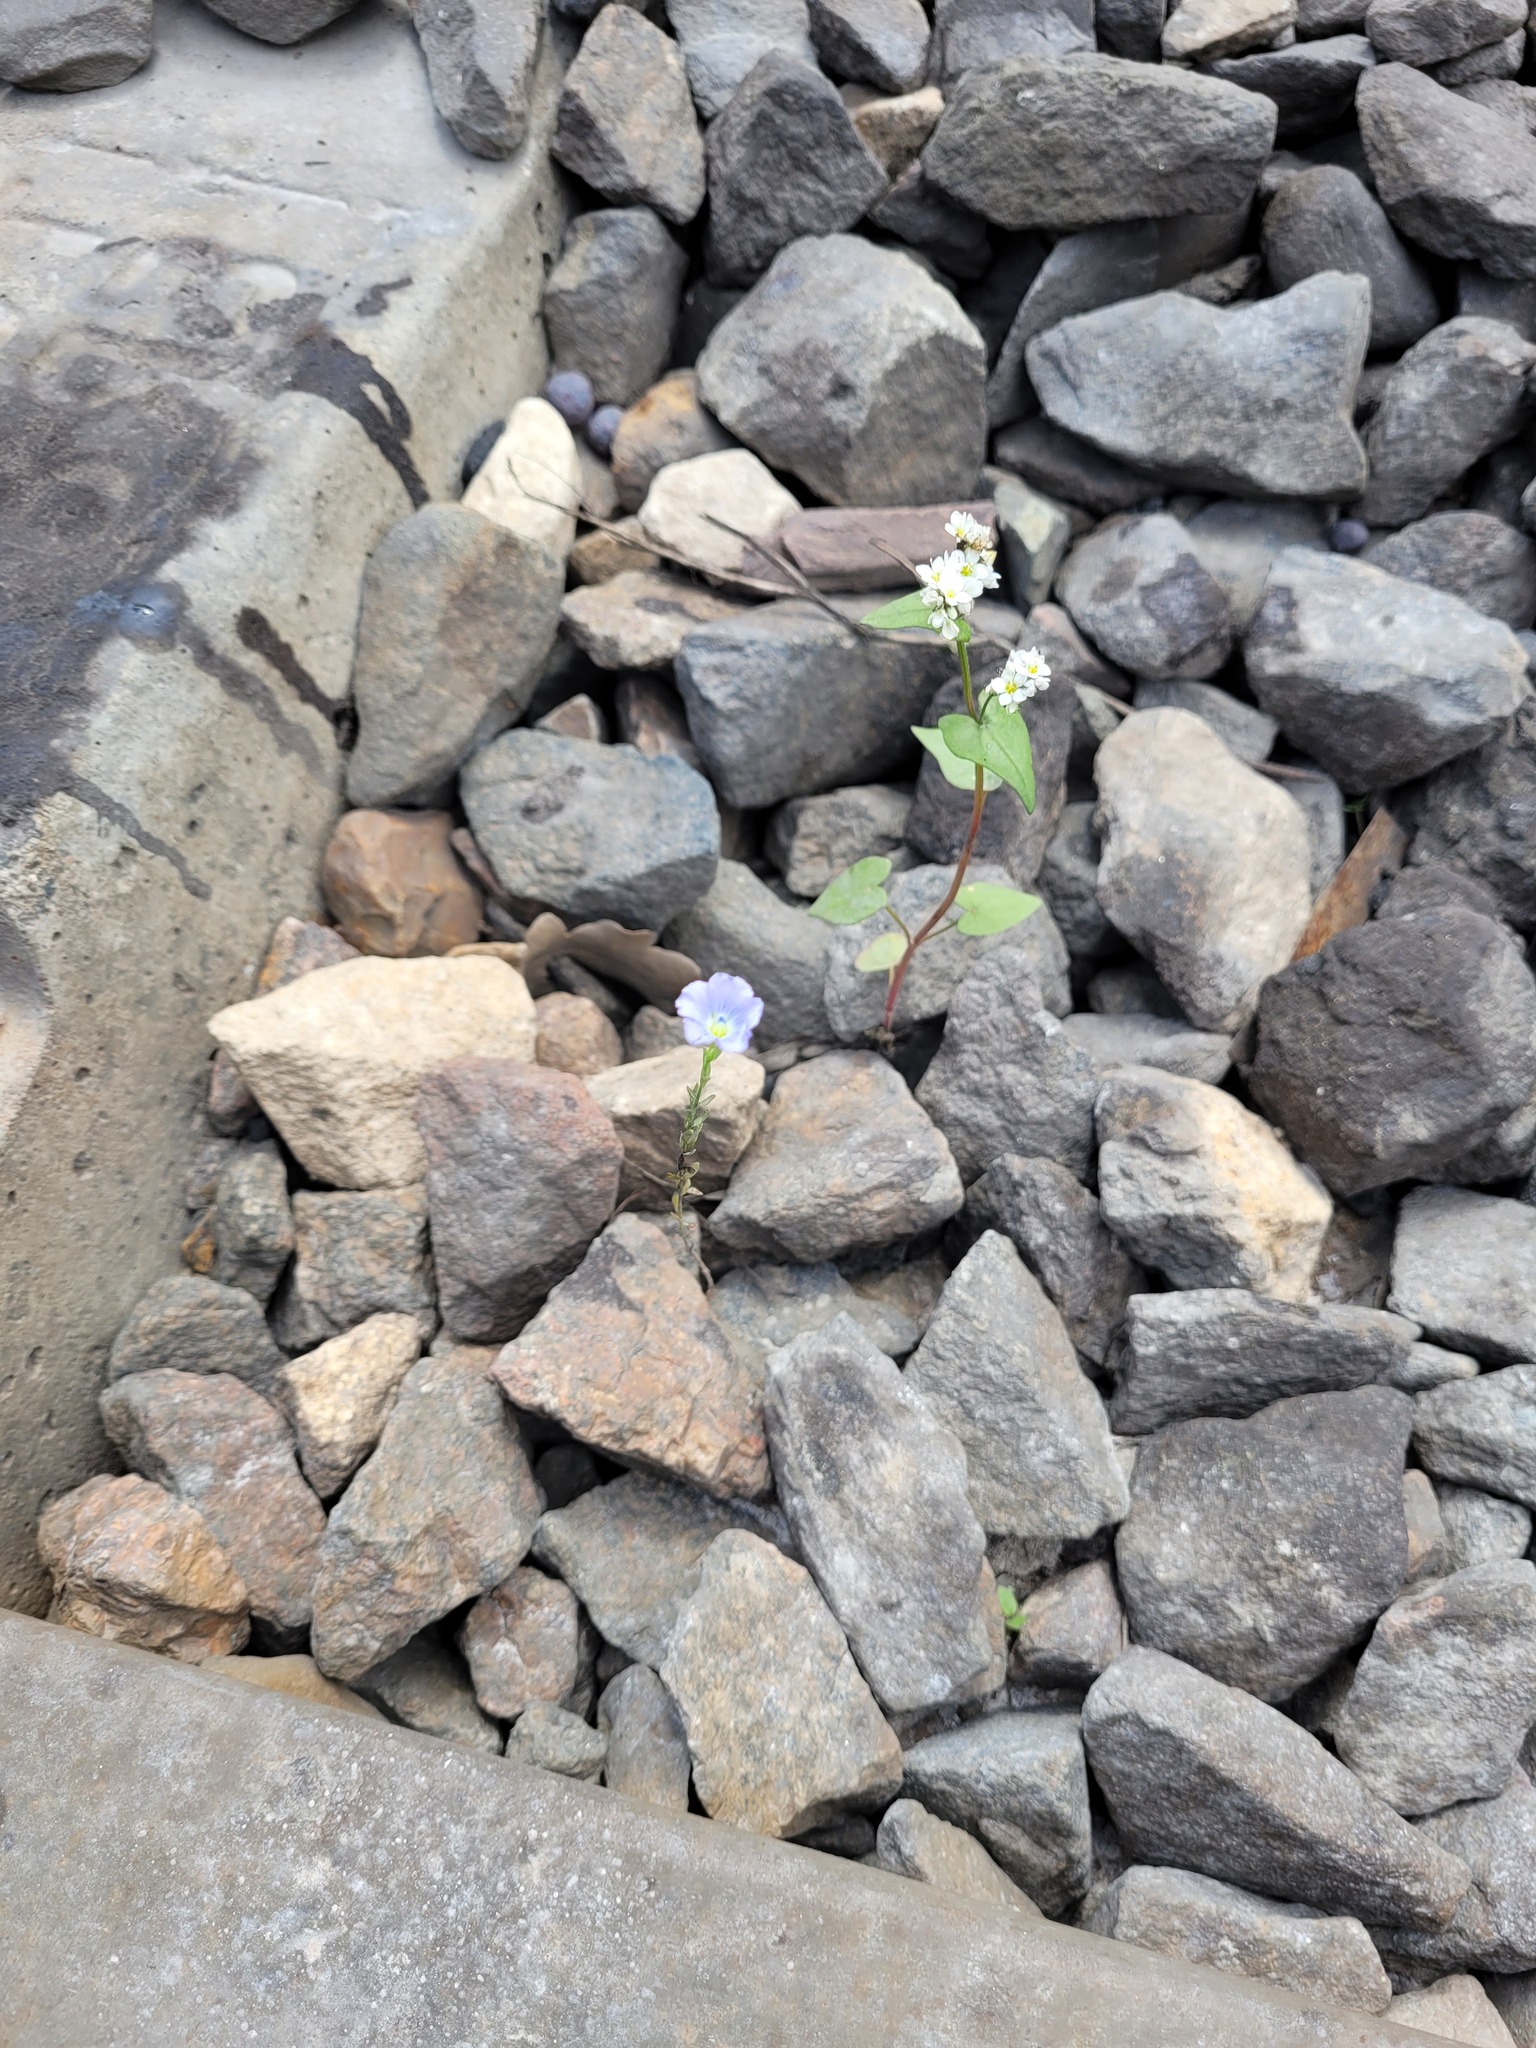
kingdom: Plantae
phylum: Tracheophyta
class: Magnoliopsida
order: Malpighiales
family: Linaceae
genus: Linum
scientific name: Linum usitatissimum
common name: Flax
